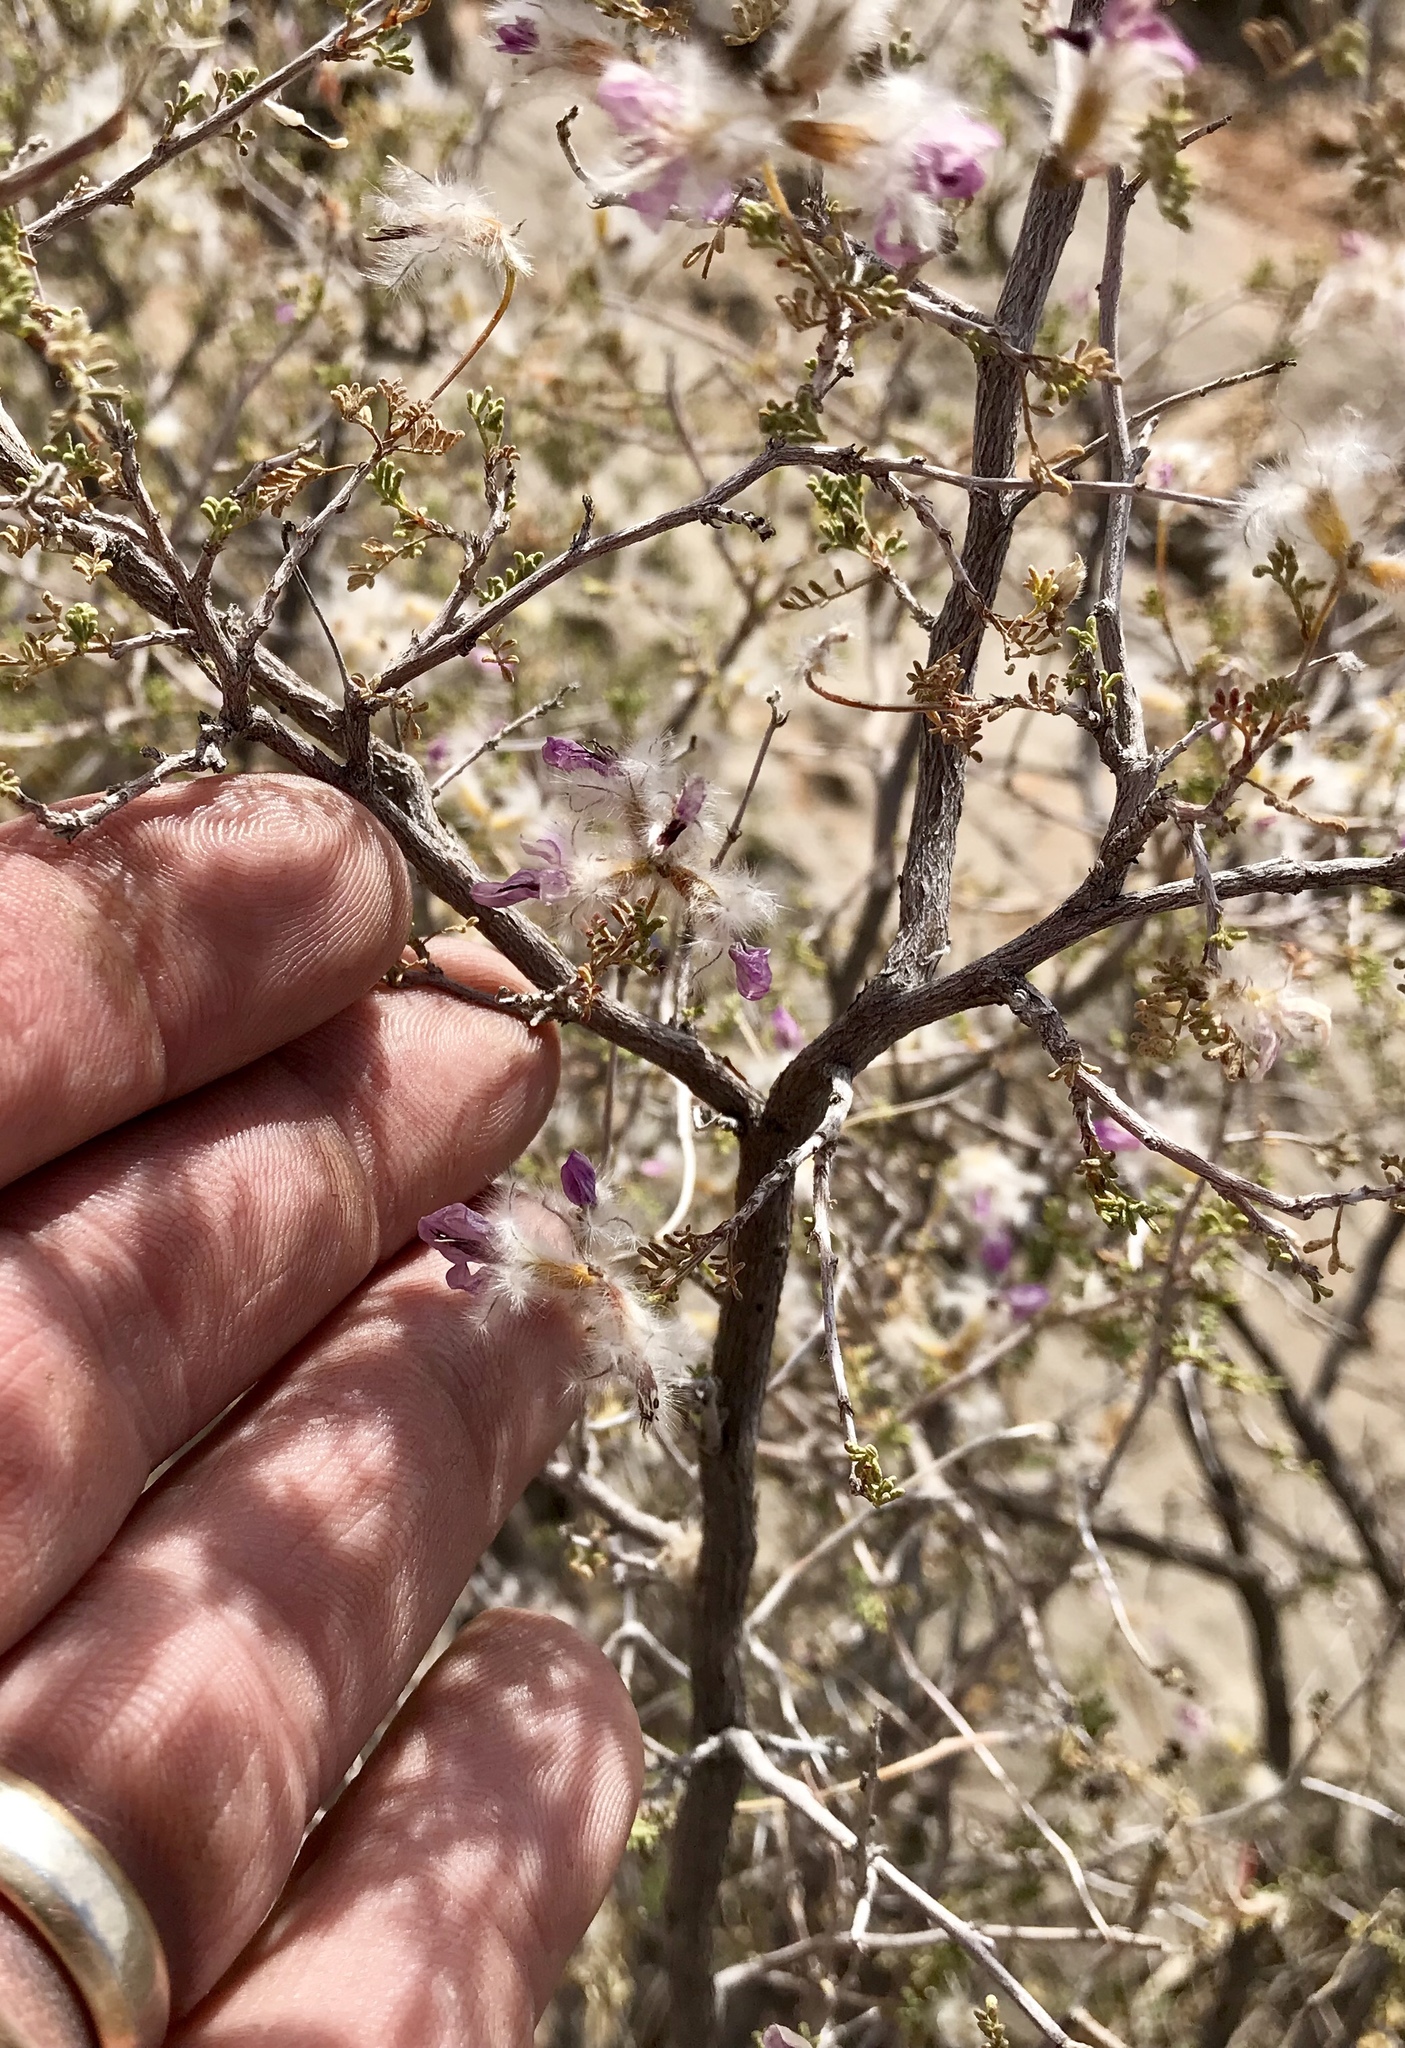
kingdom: Plantae
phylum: Tracheophyta
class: Magnoliopsida
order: Fabales
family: Fabaceae
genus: Dalea
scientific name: Dalea formosa
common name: Feather-plume dalea
